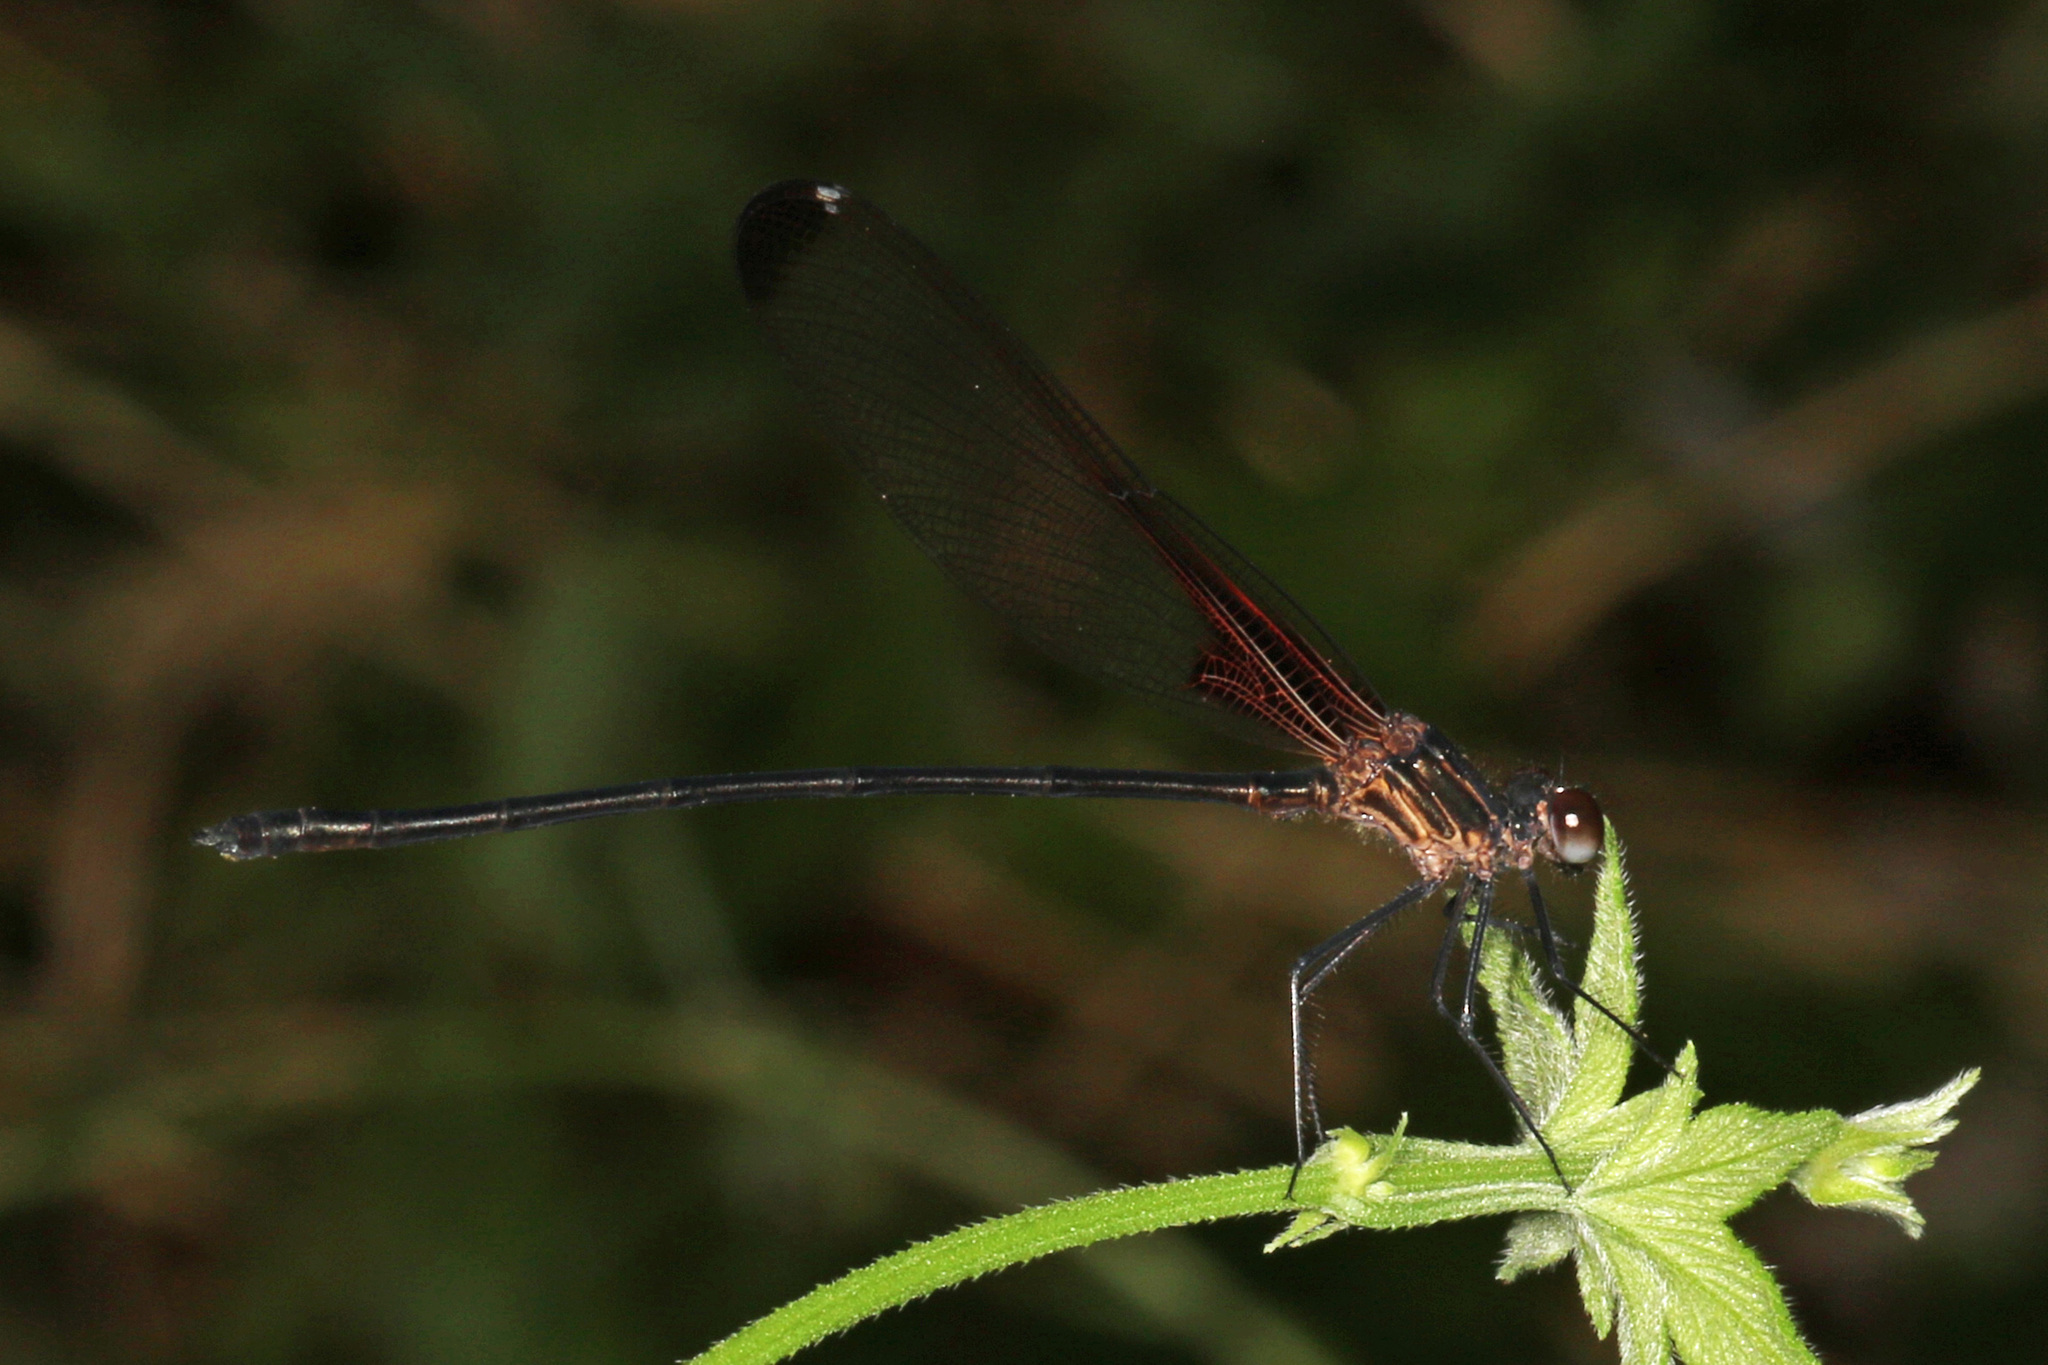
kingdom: Animalia
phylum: Arthropoda
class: Insecta
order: Odonata
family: Calopterygidae
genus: Hetaerina
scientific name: Hetaerina titia
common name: Smoky rubyspot
